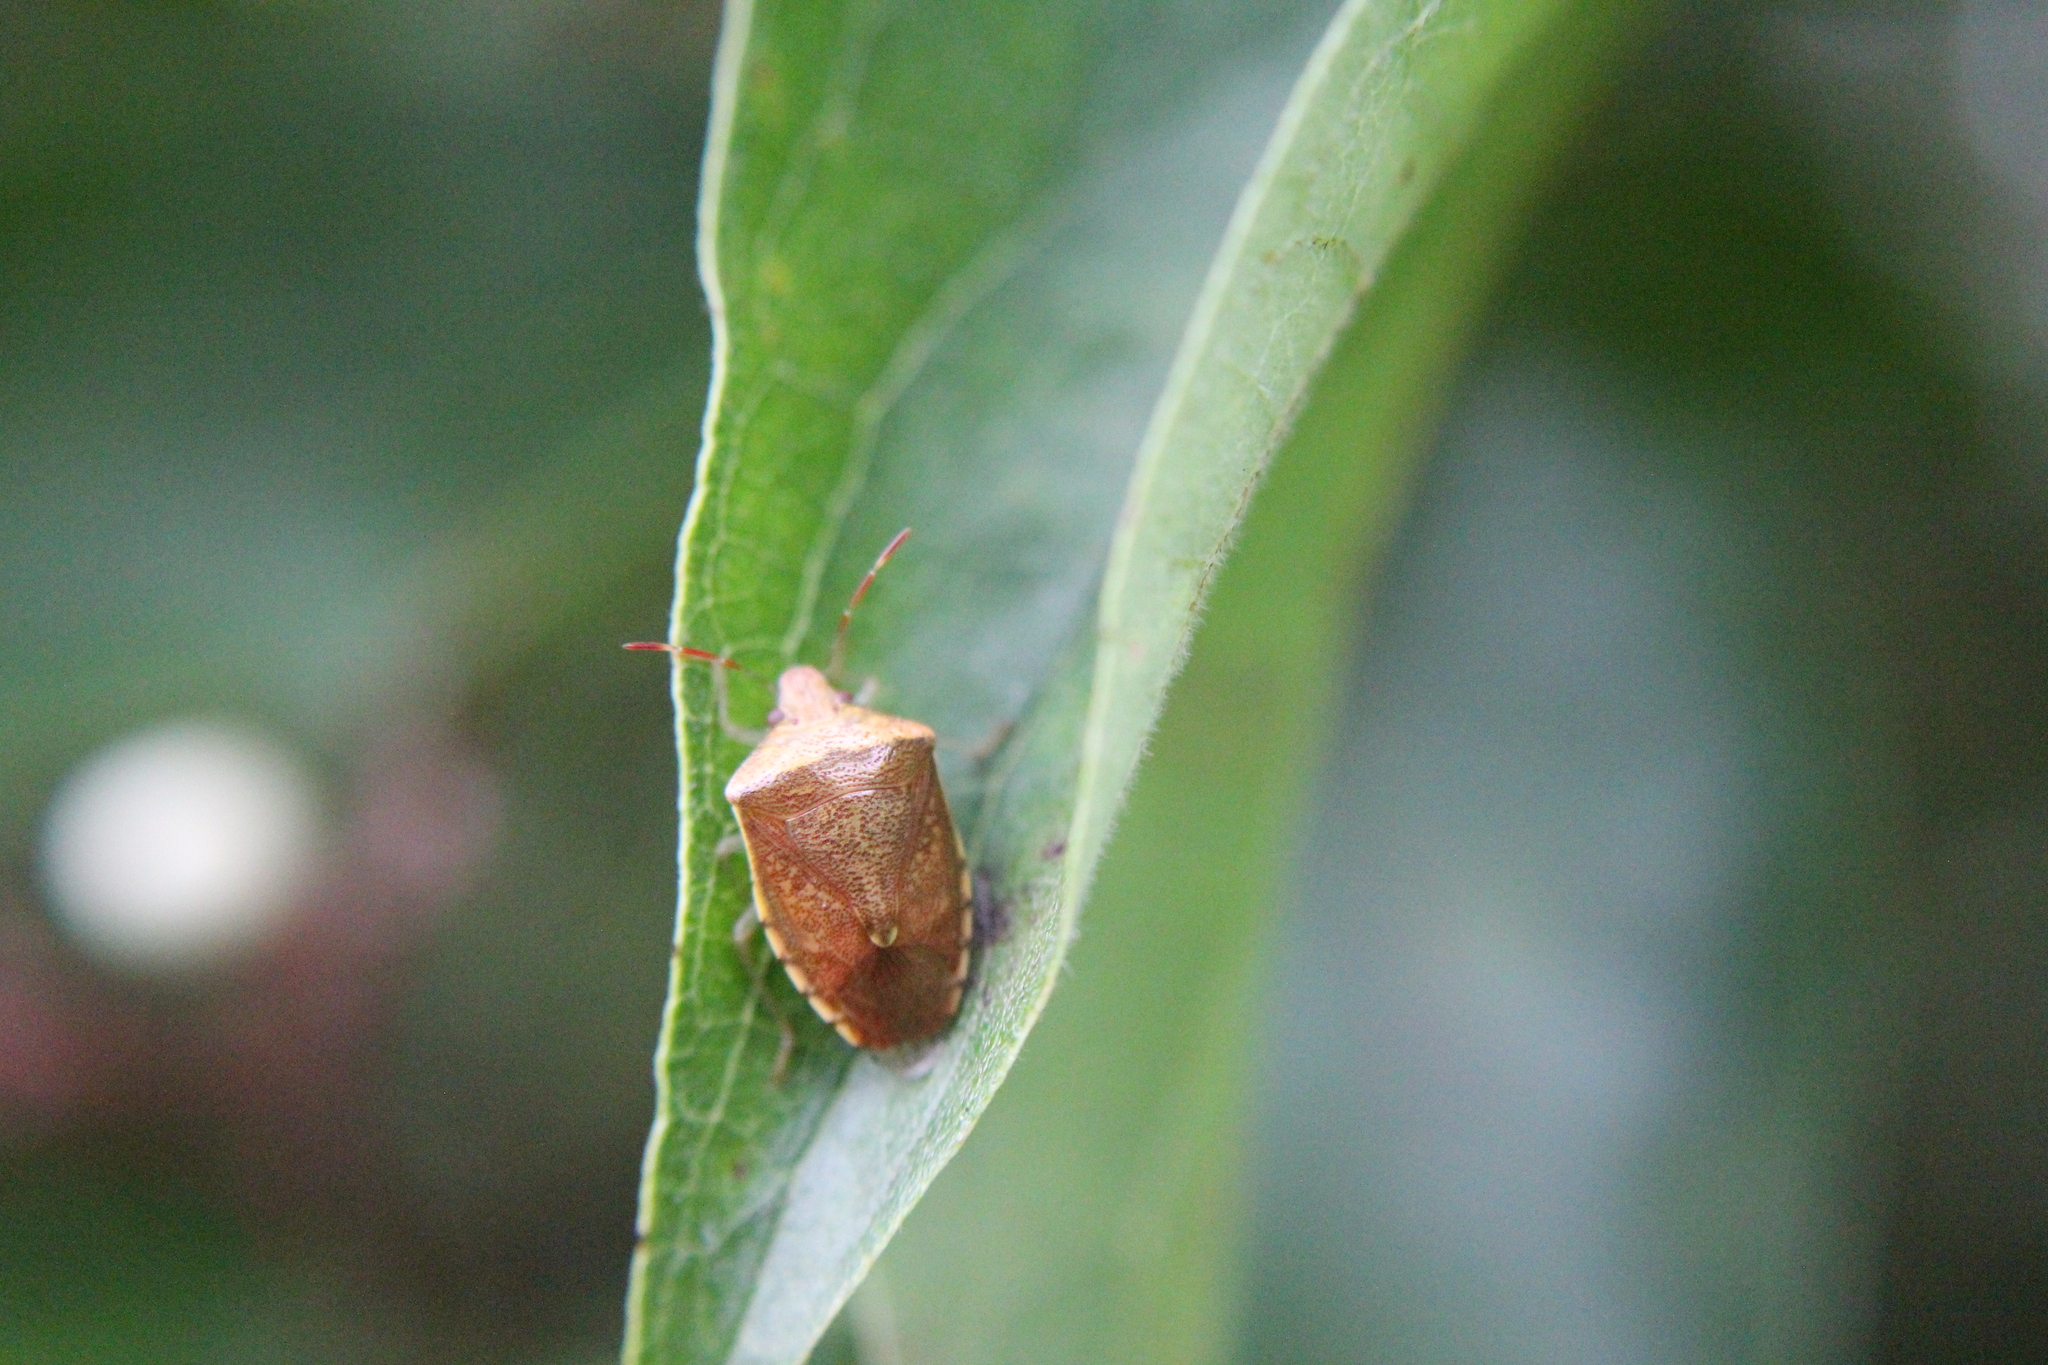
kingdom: Animalia
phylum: Arthropoda
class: Insecta
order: Hemiptera
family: Pentatomidae
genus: Banasa
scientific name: Banasa calva
